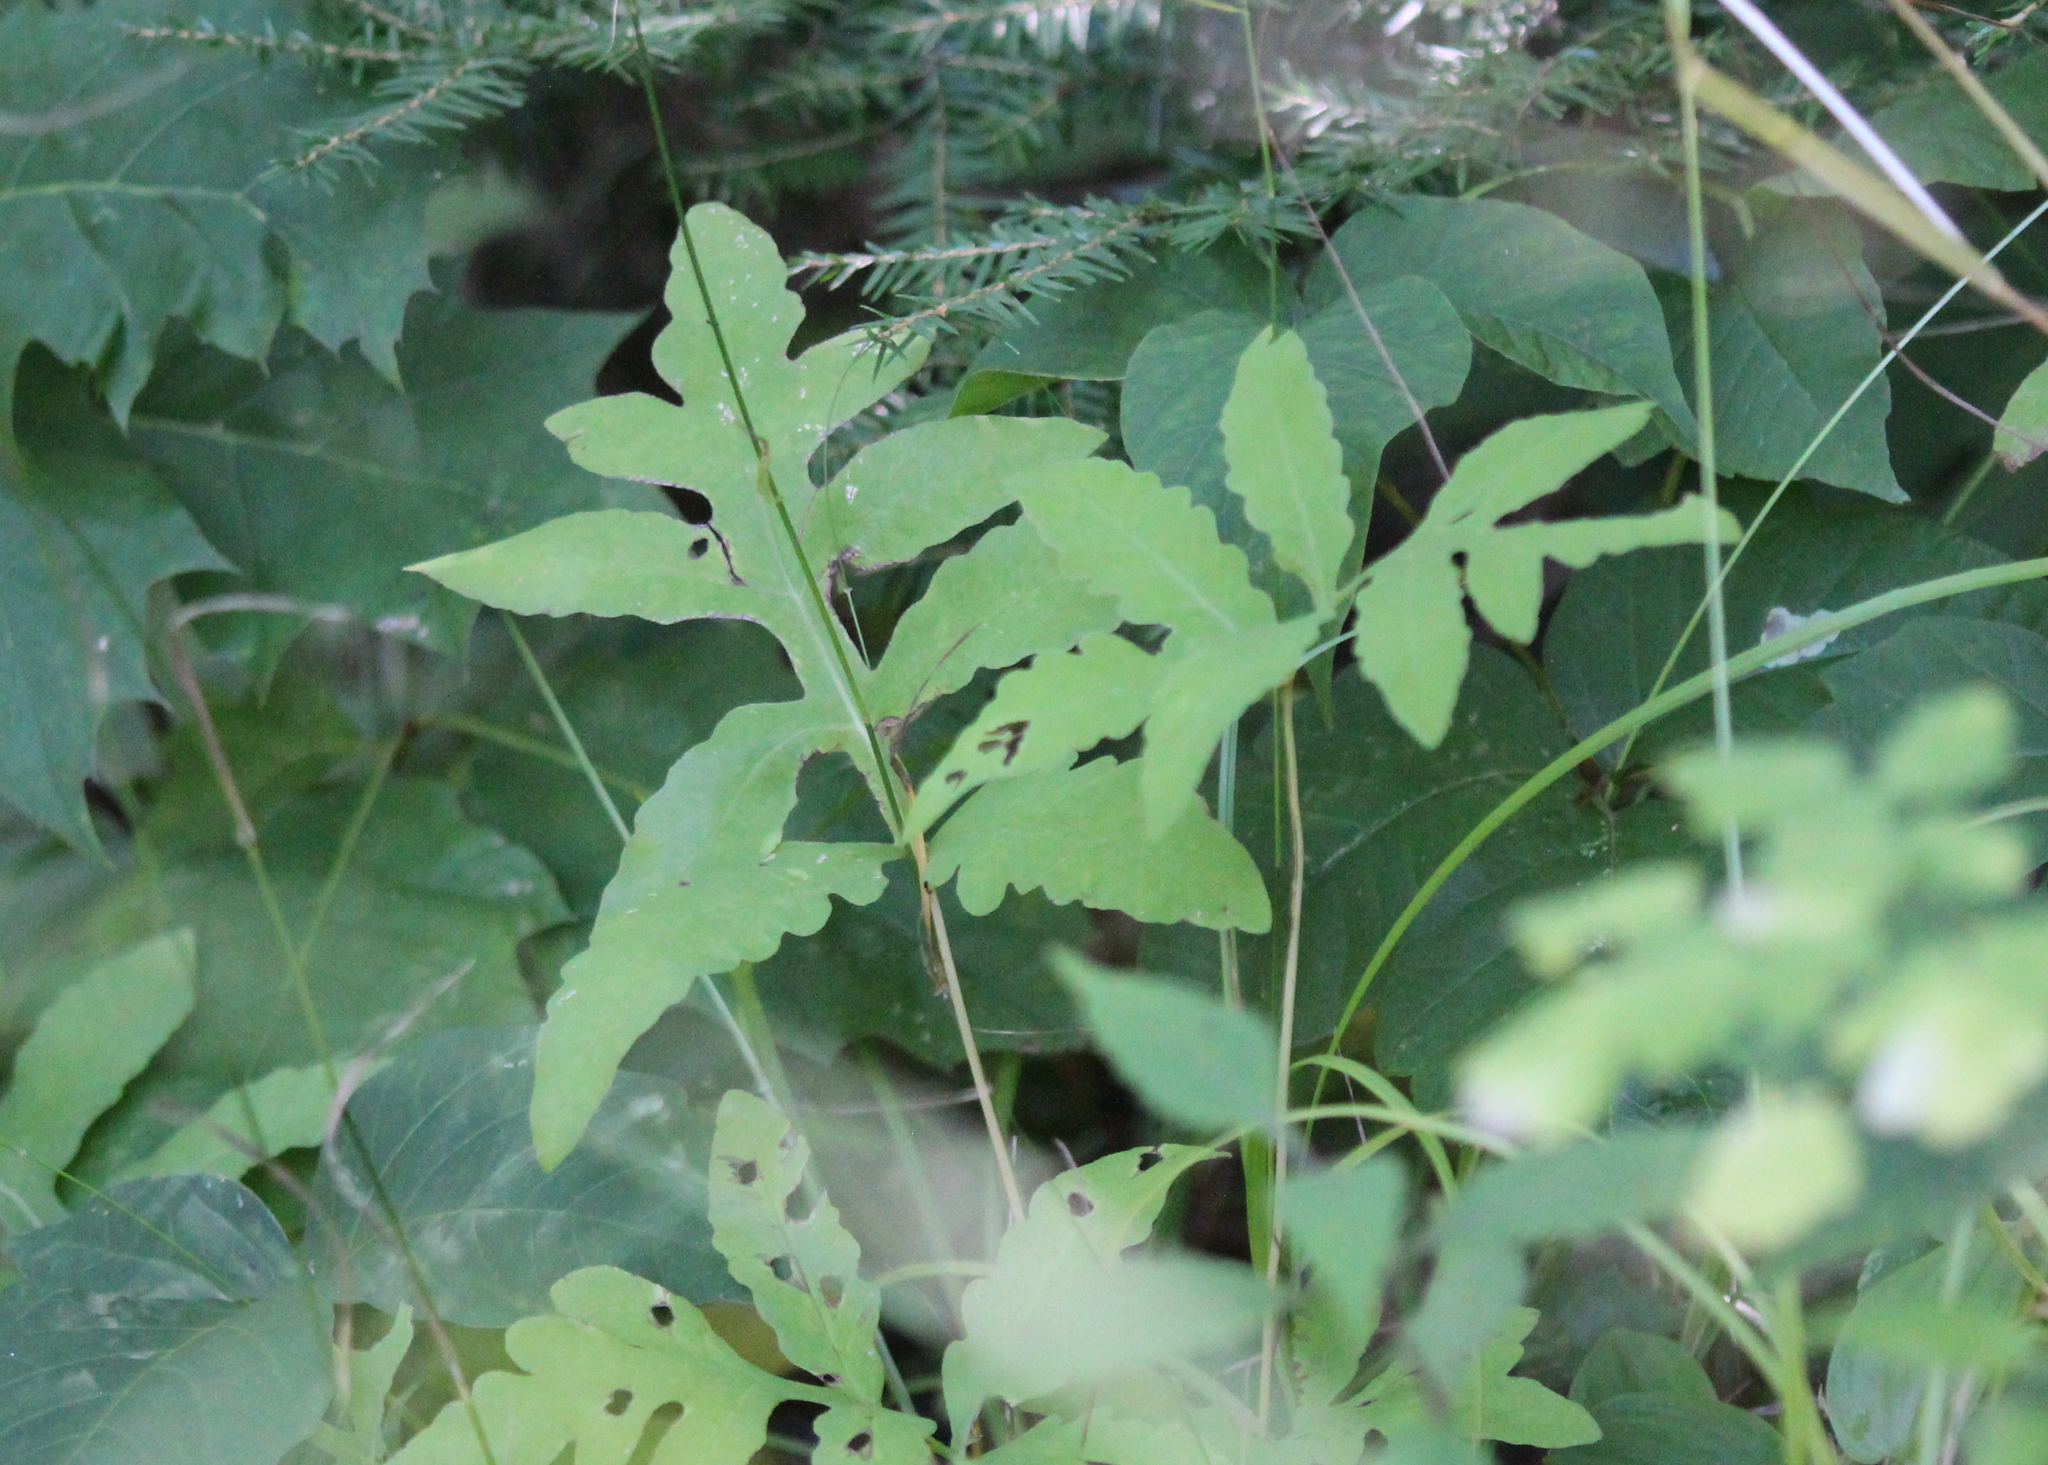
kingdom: Plantae
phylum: Tracheophyta
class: Polypodiopsida
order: Polypodiales
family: Onocleaceae
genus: Onoclea
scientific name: Onoclea sensibilis
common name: Sensitive fern
